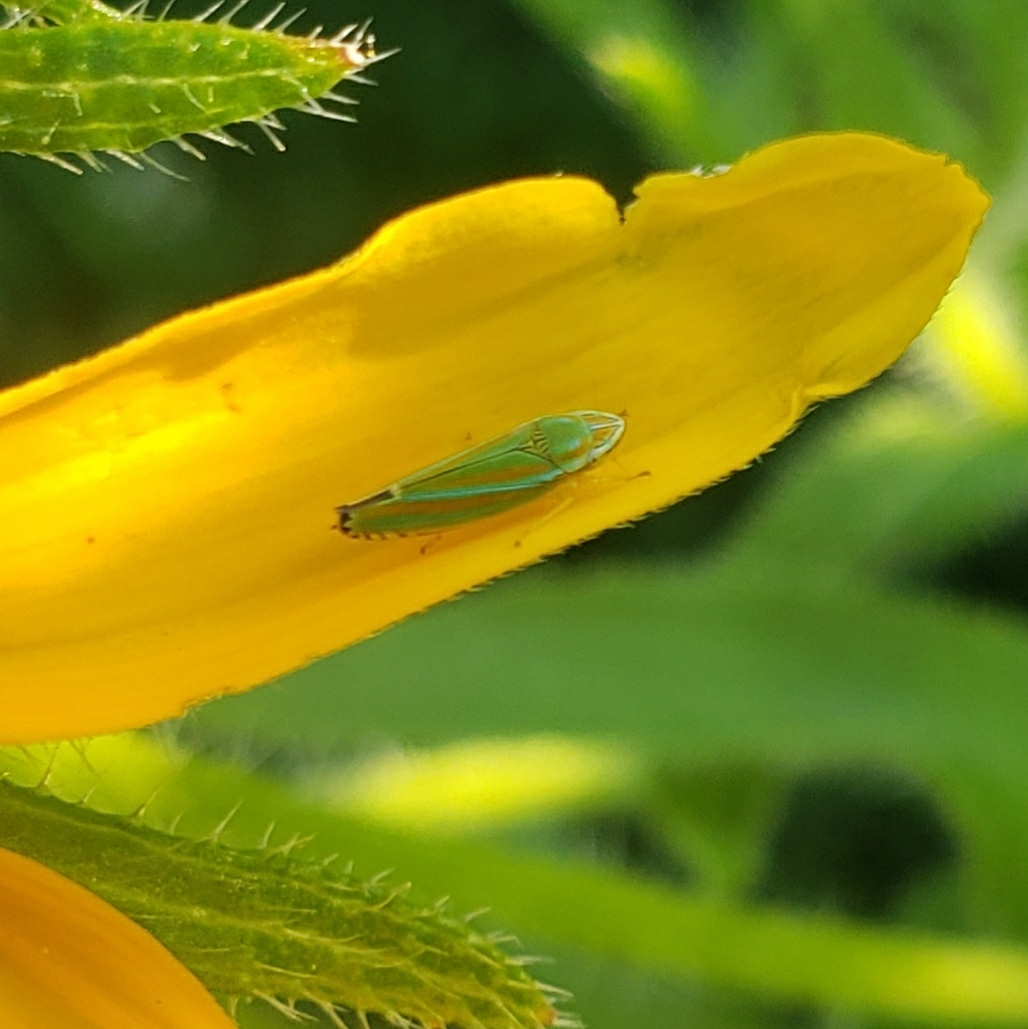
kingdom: Animalia
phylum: Arthropoda
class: Insecta
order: Hemiptera
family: Cicadellidae
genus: Graphocephala
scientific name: Graphocephala versuta
